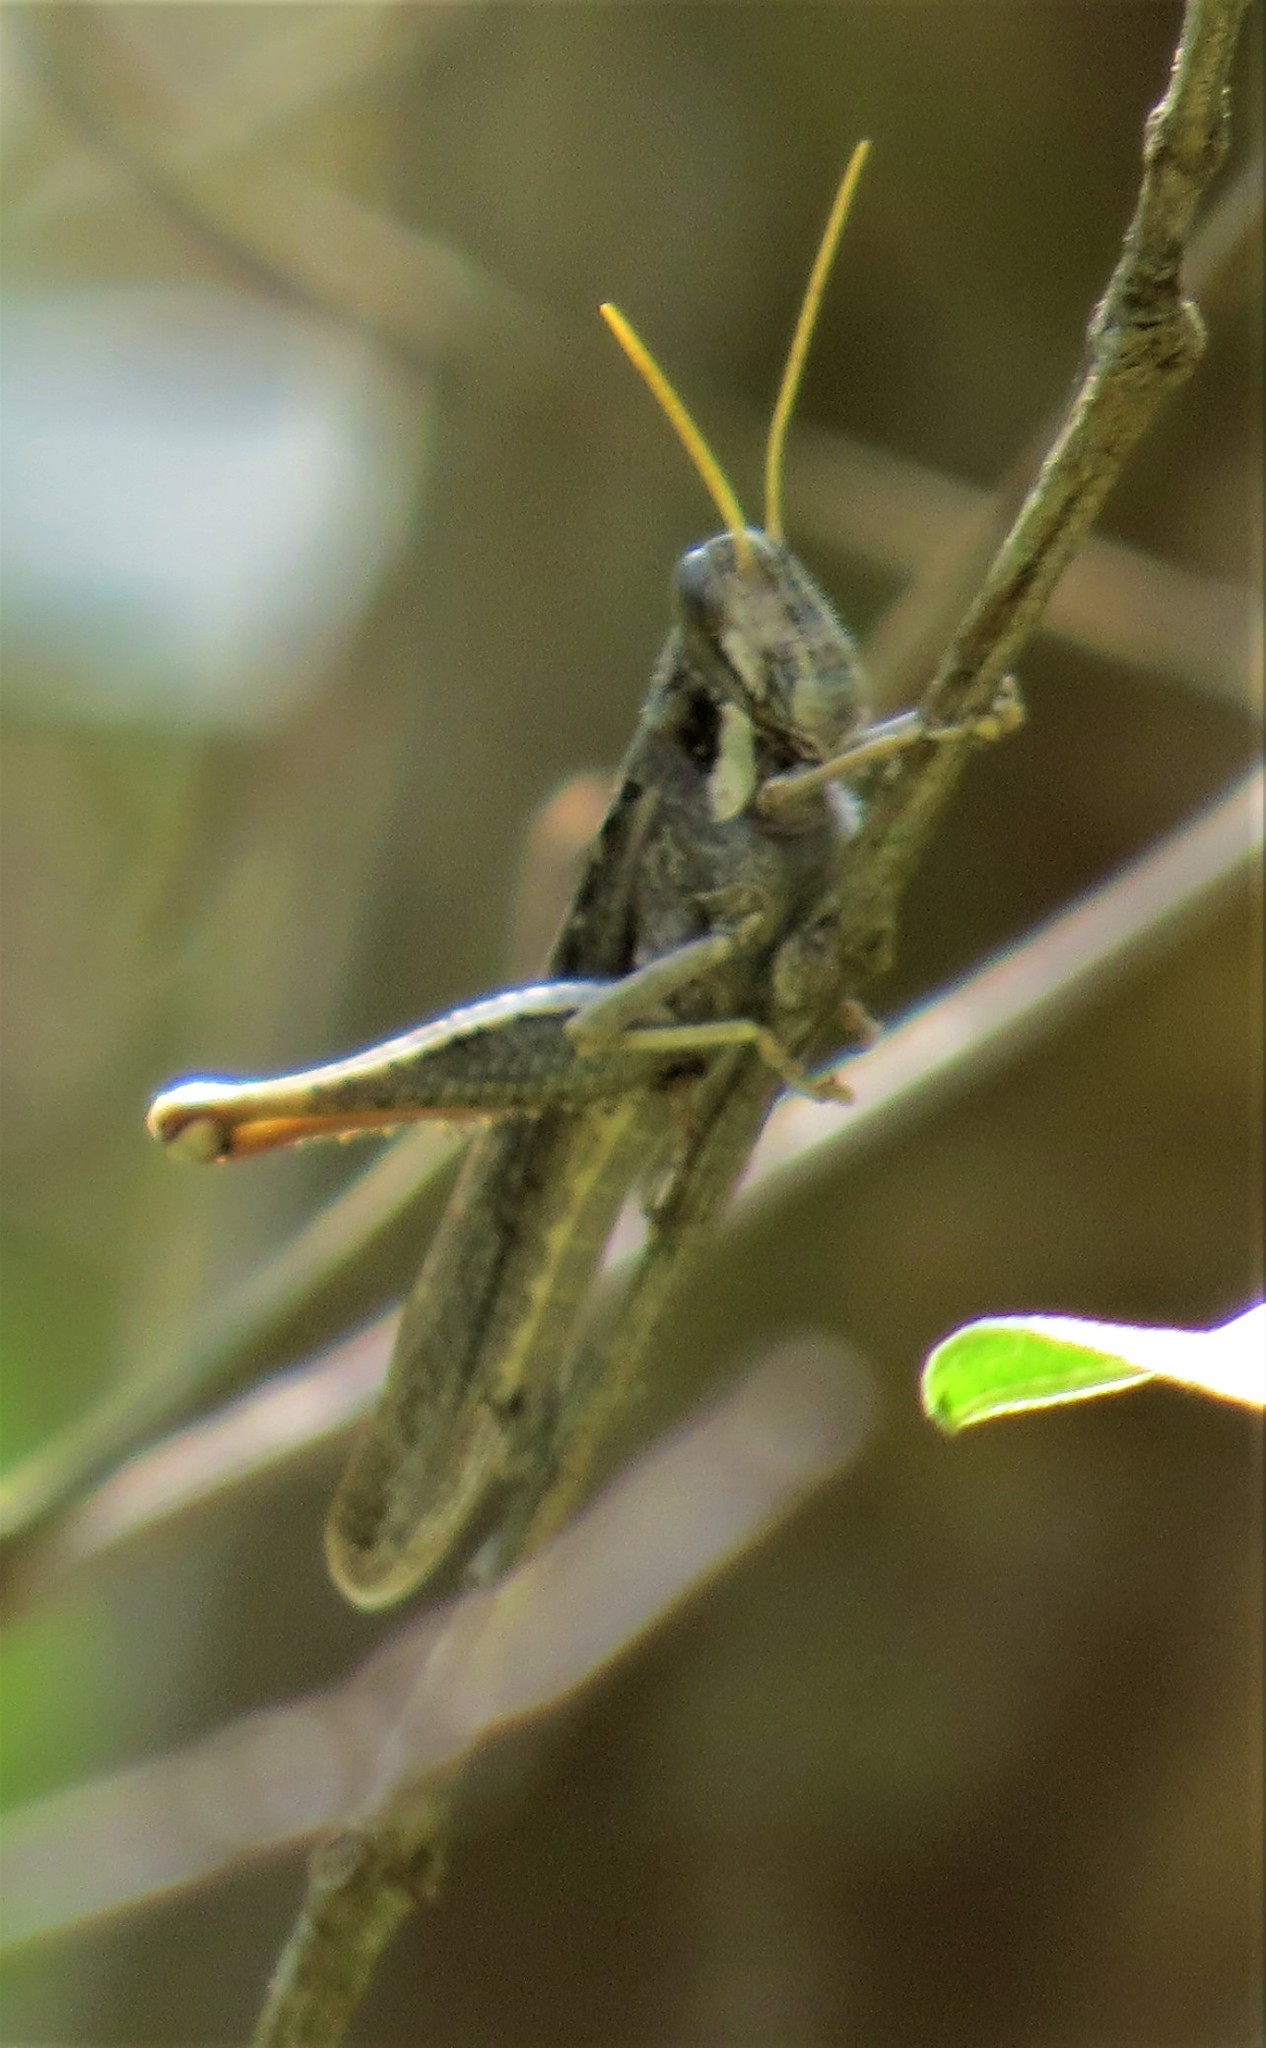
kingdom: Animalia
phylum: Arthropoda
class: Insecta
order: Orthoptera
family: Acrididae
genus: Schistocerca
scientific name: Schistocerca nitens
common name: Vagrant grasshopper
